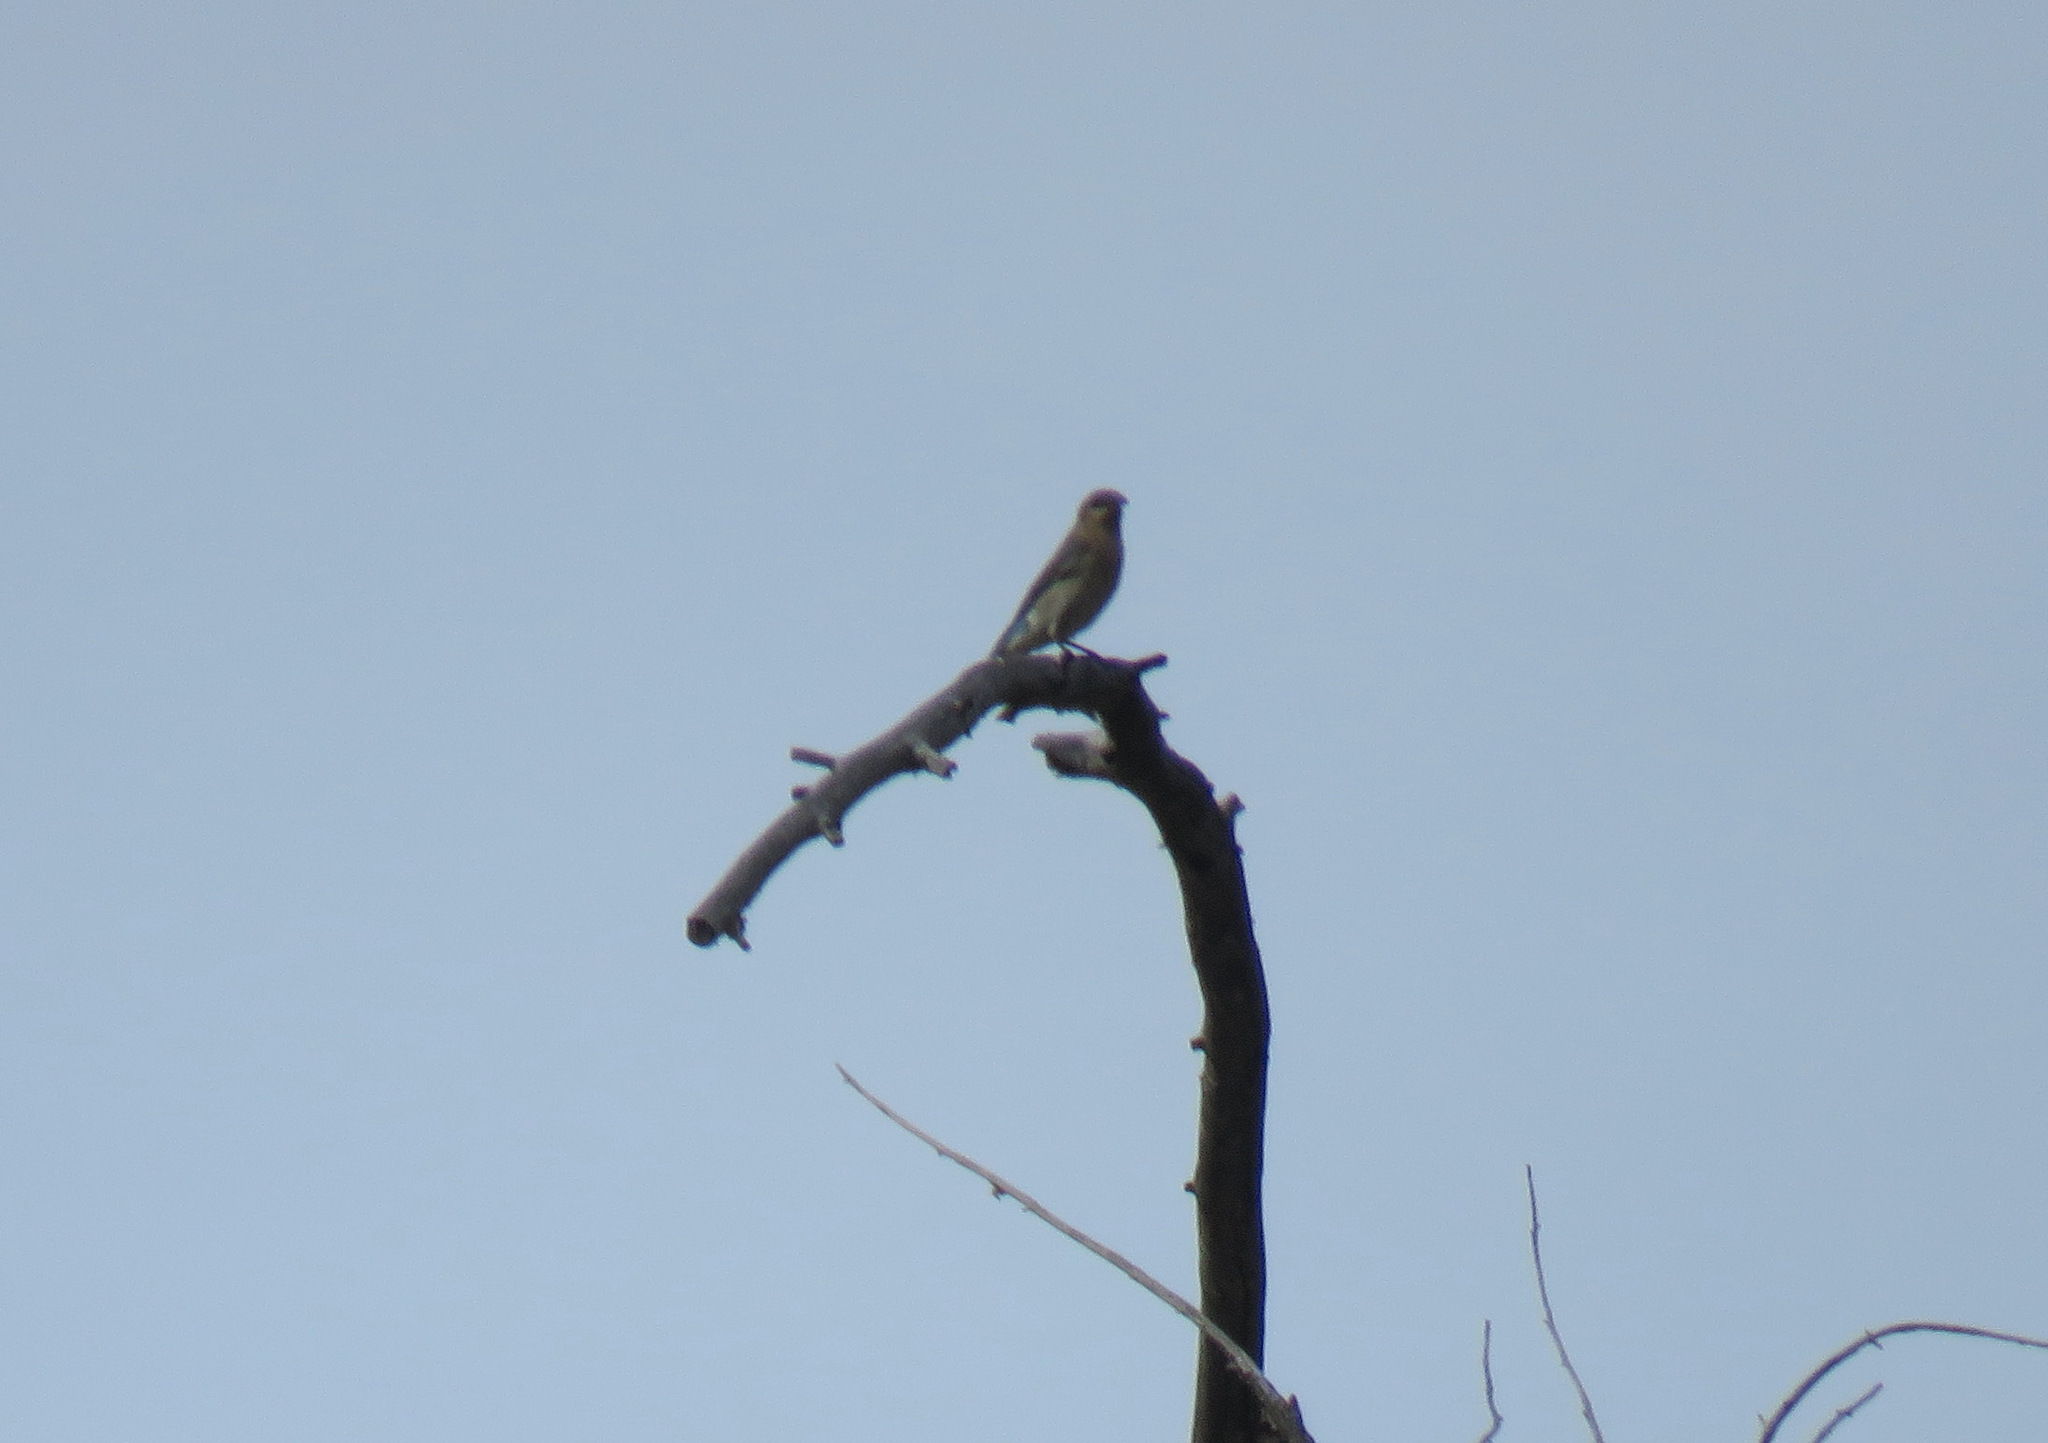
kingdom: Animalia
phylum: Chordata
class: Aves
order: Passeriformes
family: Turdidae
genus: Sialia
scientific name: Sialia currucoides
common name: Mountain bluebird
